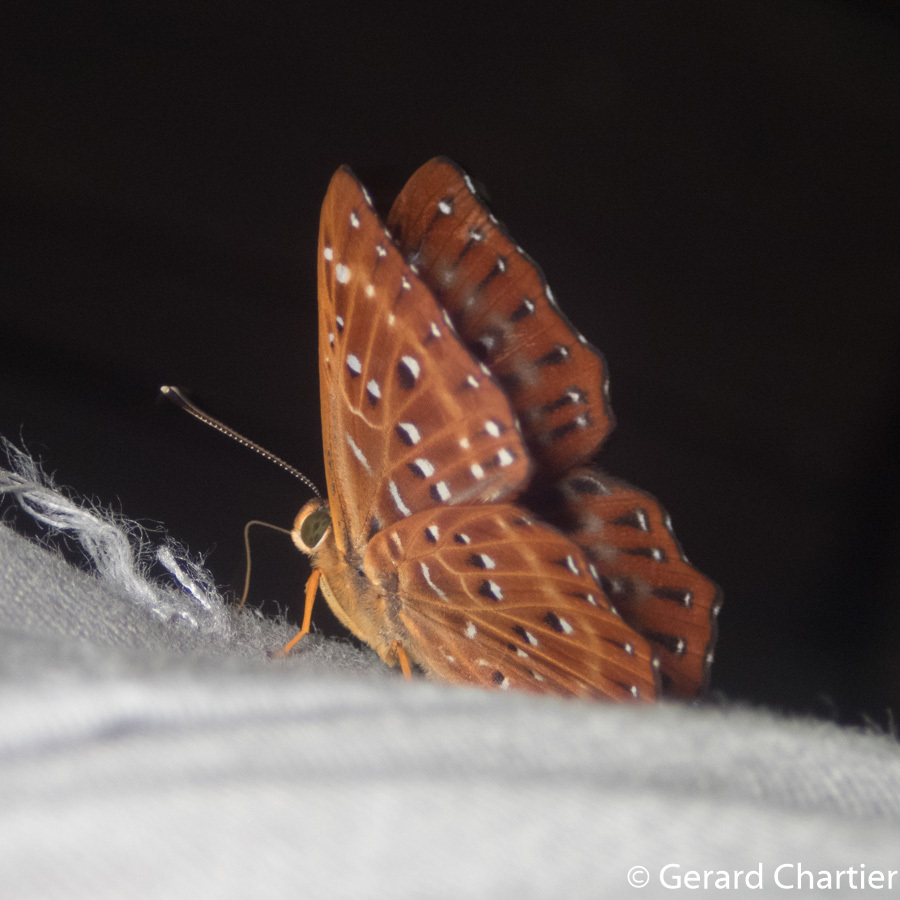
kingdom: Animalia
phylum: Arthropoda
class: Insecta
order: Lepidoptera
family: Riodinidae
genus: Zemeros
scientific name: Zemeros flegyas
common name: Punchinello
